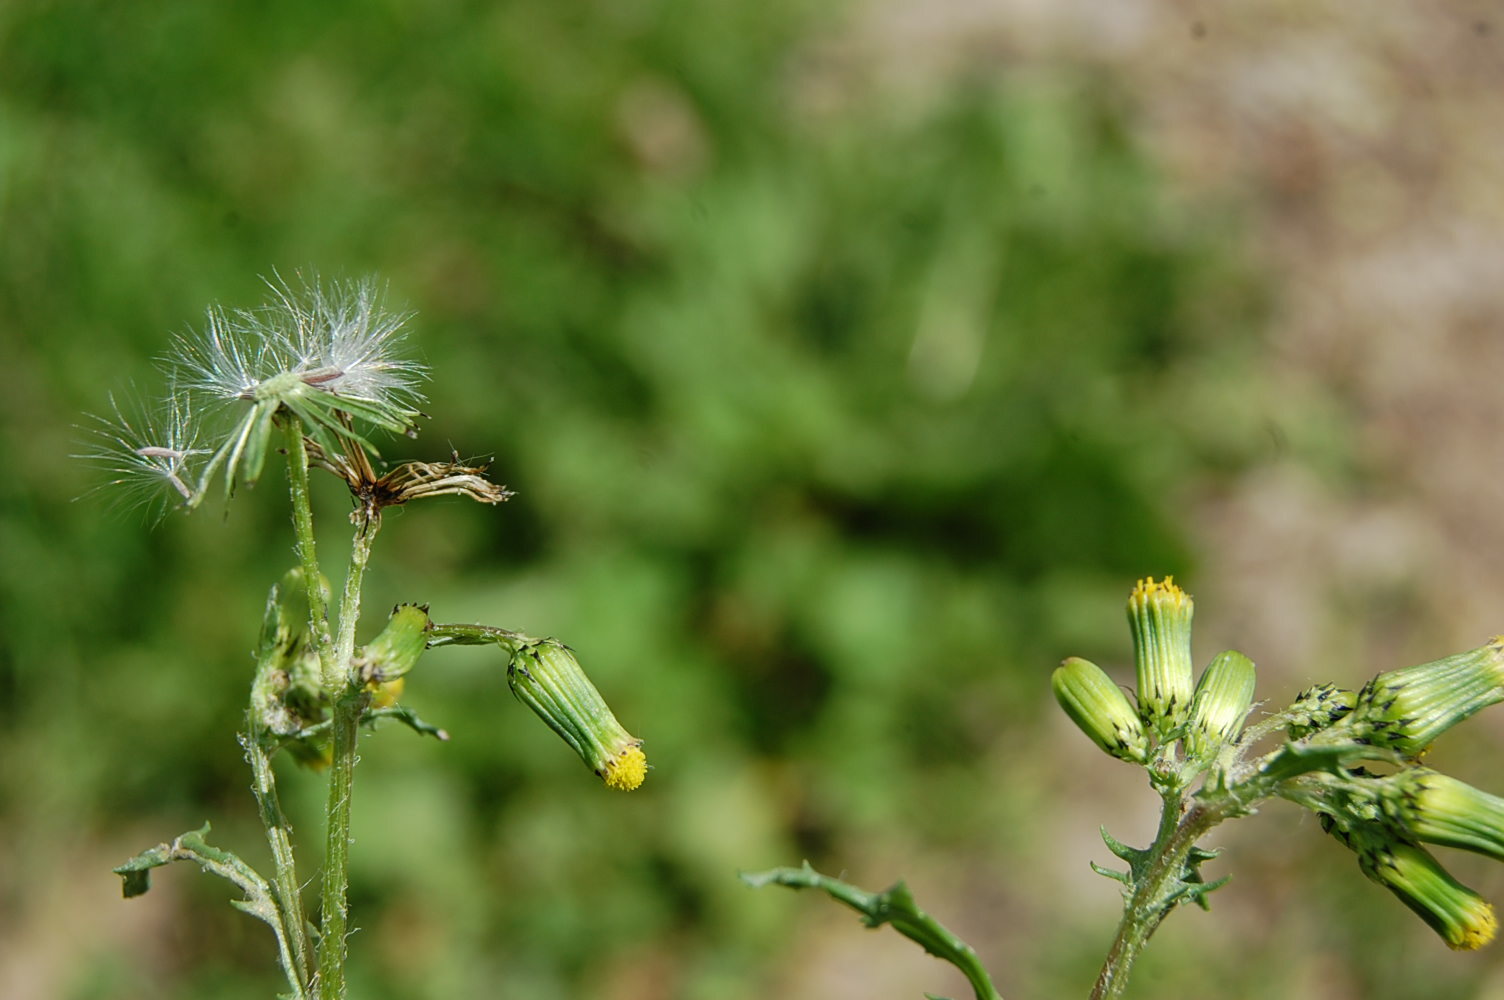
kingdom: Plantae
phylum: Tracheophyta
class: Magnoliopsida
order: Asterales
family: Asteraceae
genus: Senecio
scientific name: Senecio vulgaris
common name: Old-man-in-the-spring
